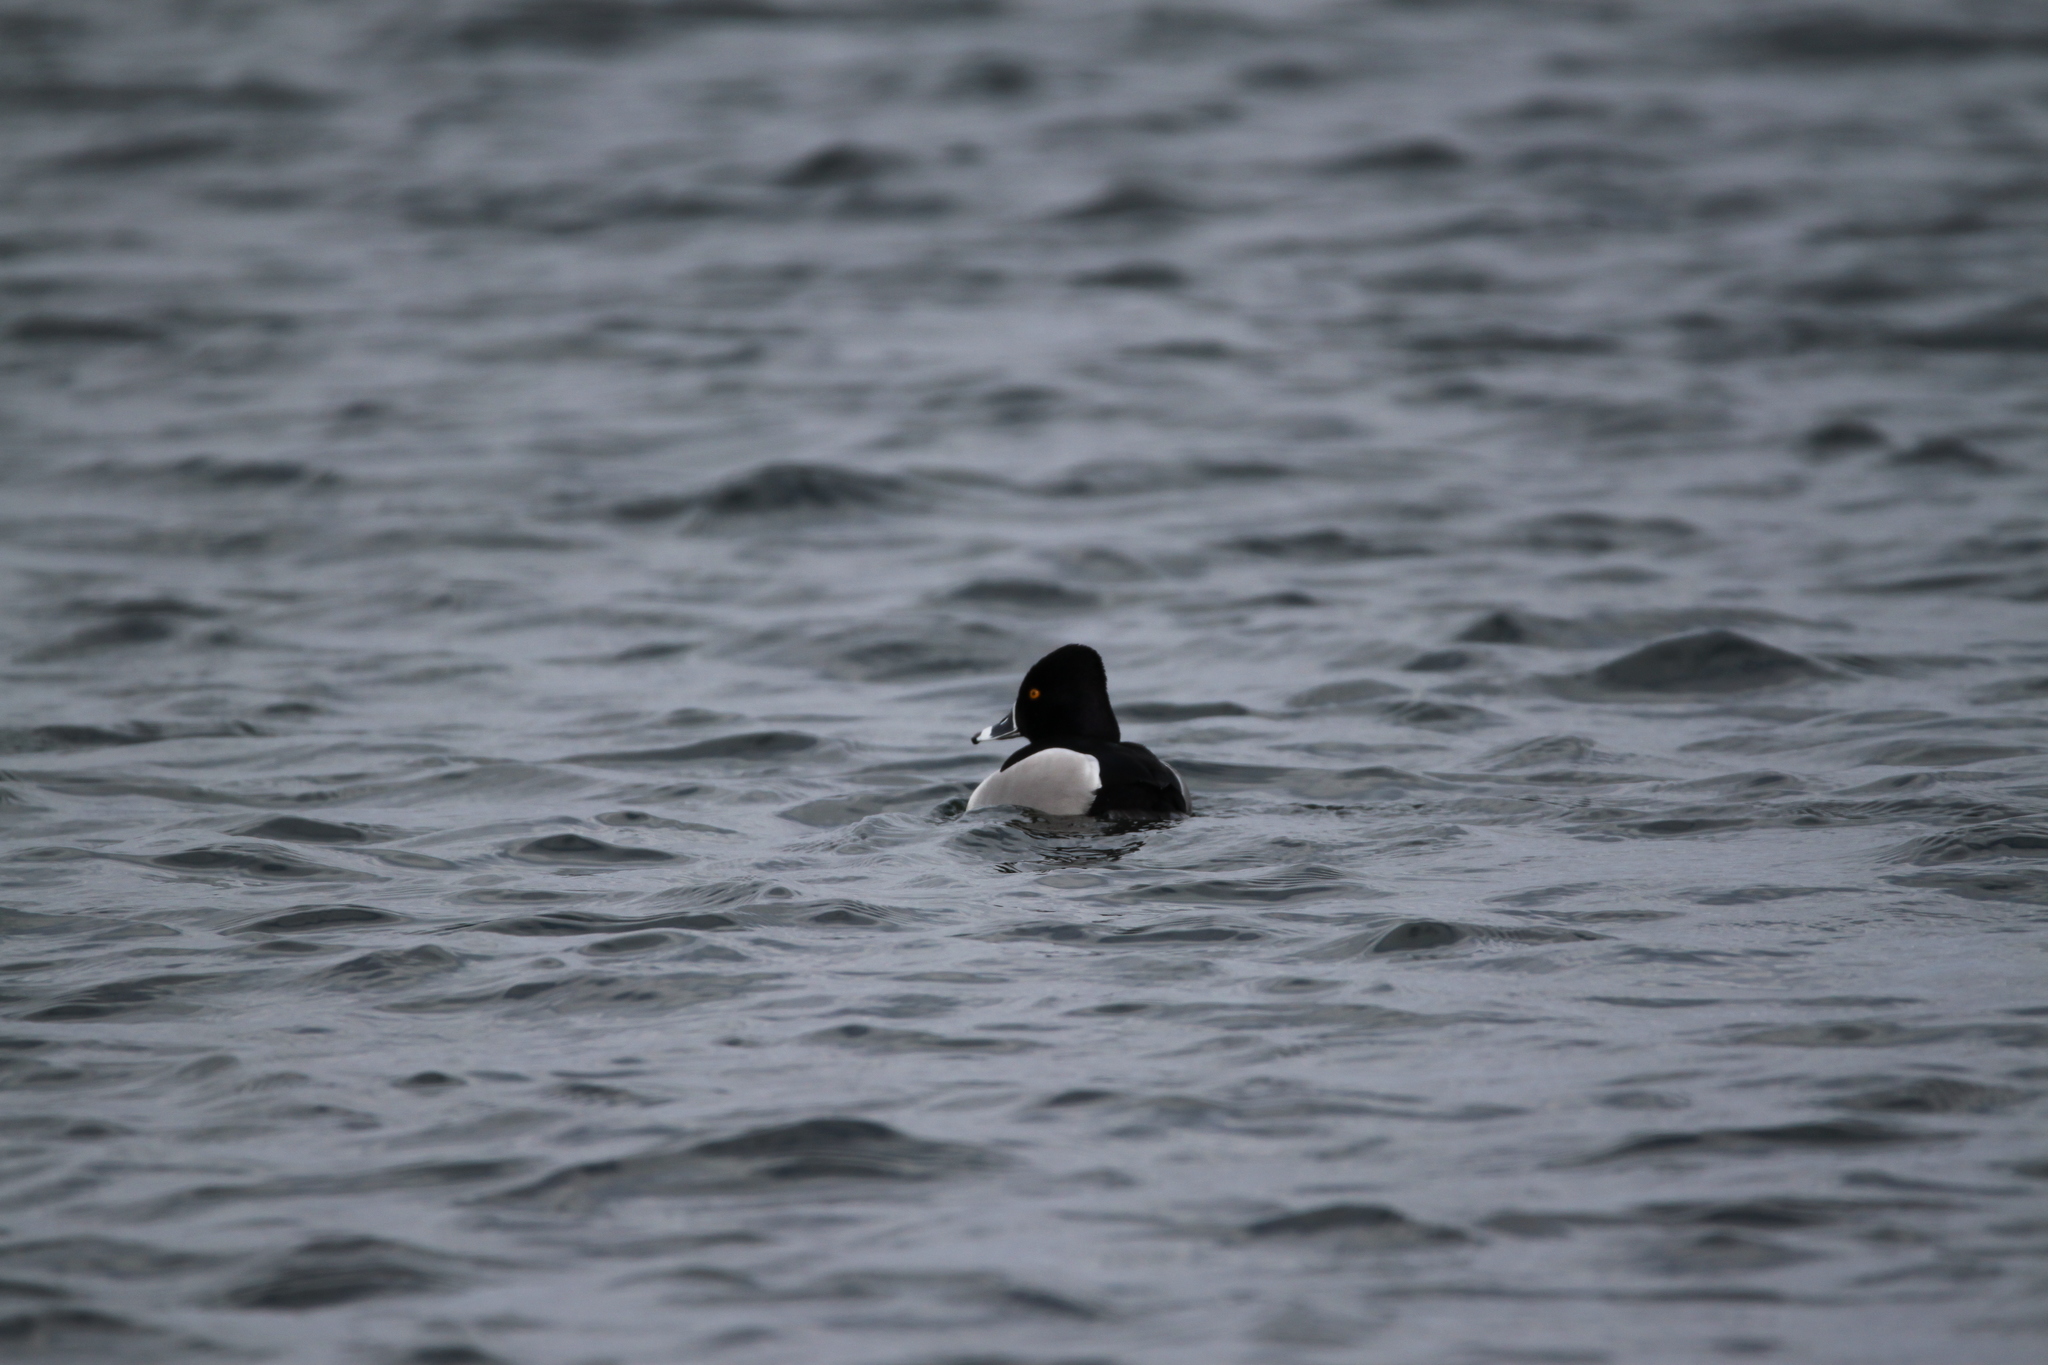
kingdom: Animalia
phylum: Chordata
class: Aves
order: Anseriformes
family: Anatidae
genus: Aythya
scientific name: Aythya collaris
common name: Ring-necked duck
